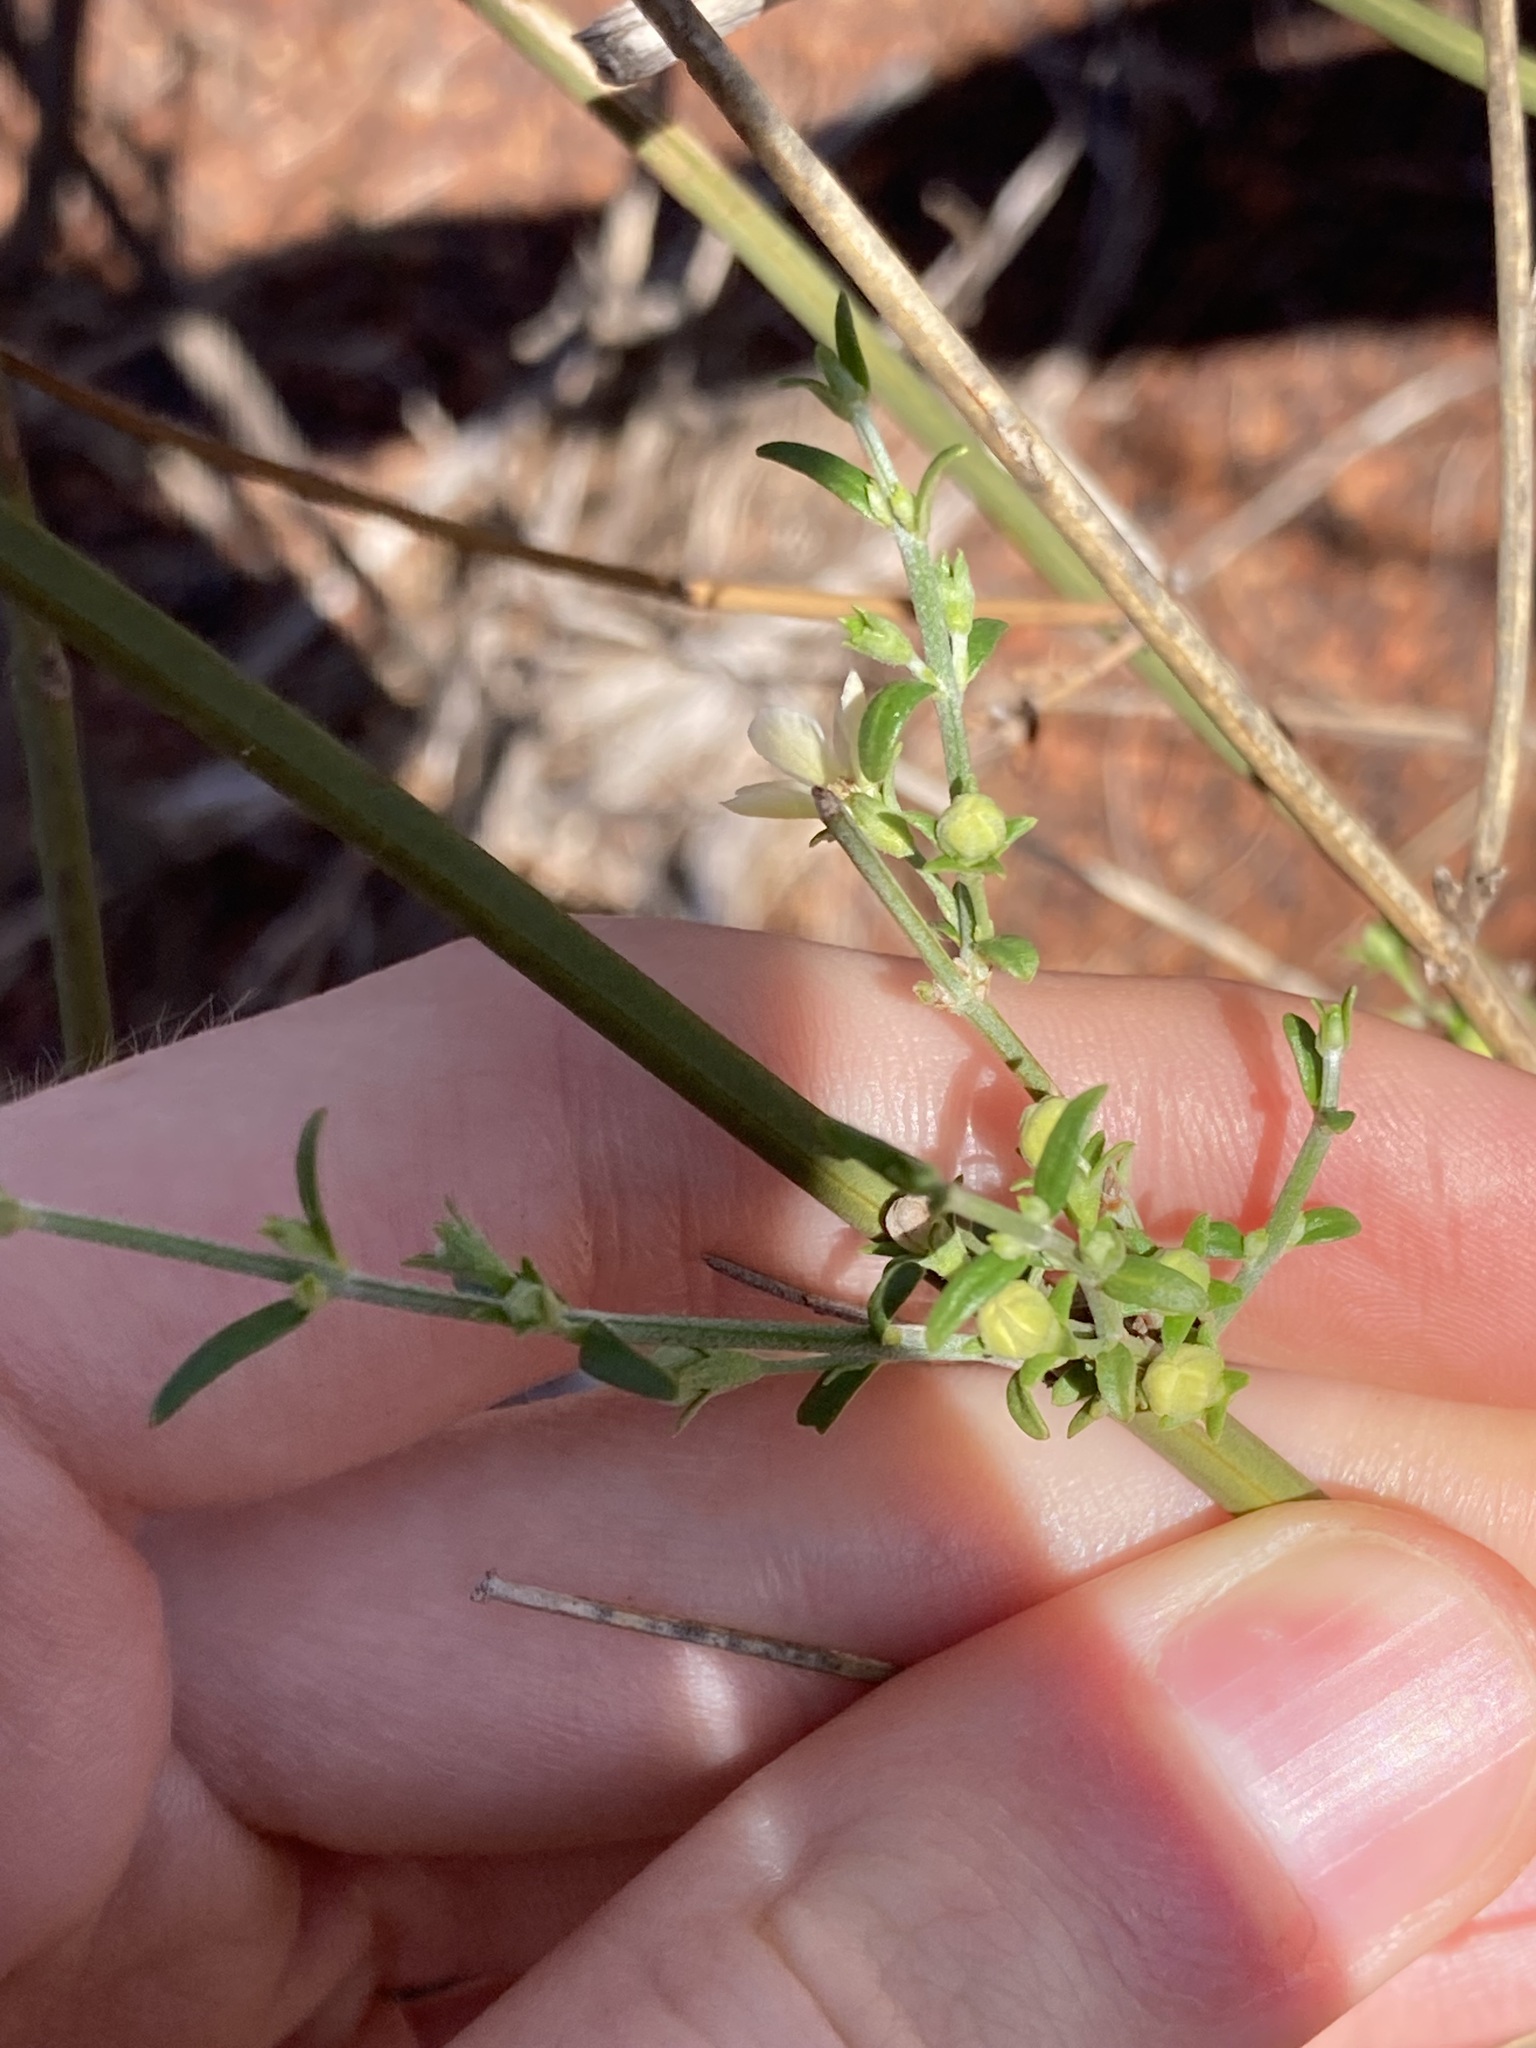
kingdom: Plantae
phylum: Tracheophyta
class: Magnoliopsida
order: Lamiales
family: Lamiaceae
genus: Teucrium
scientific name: Teucrium teucriiflorum
